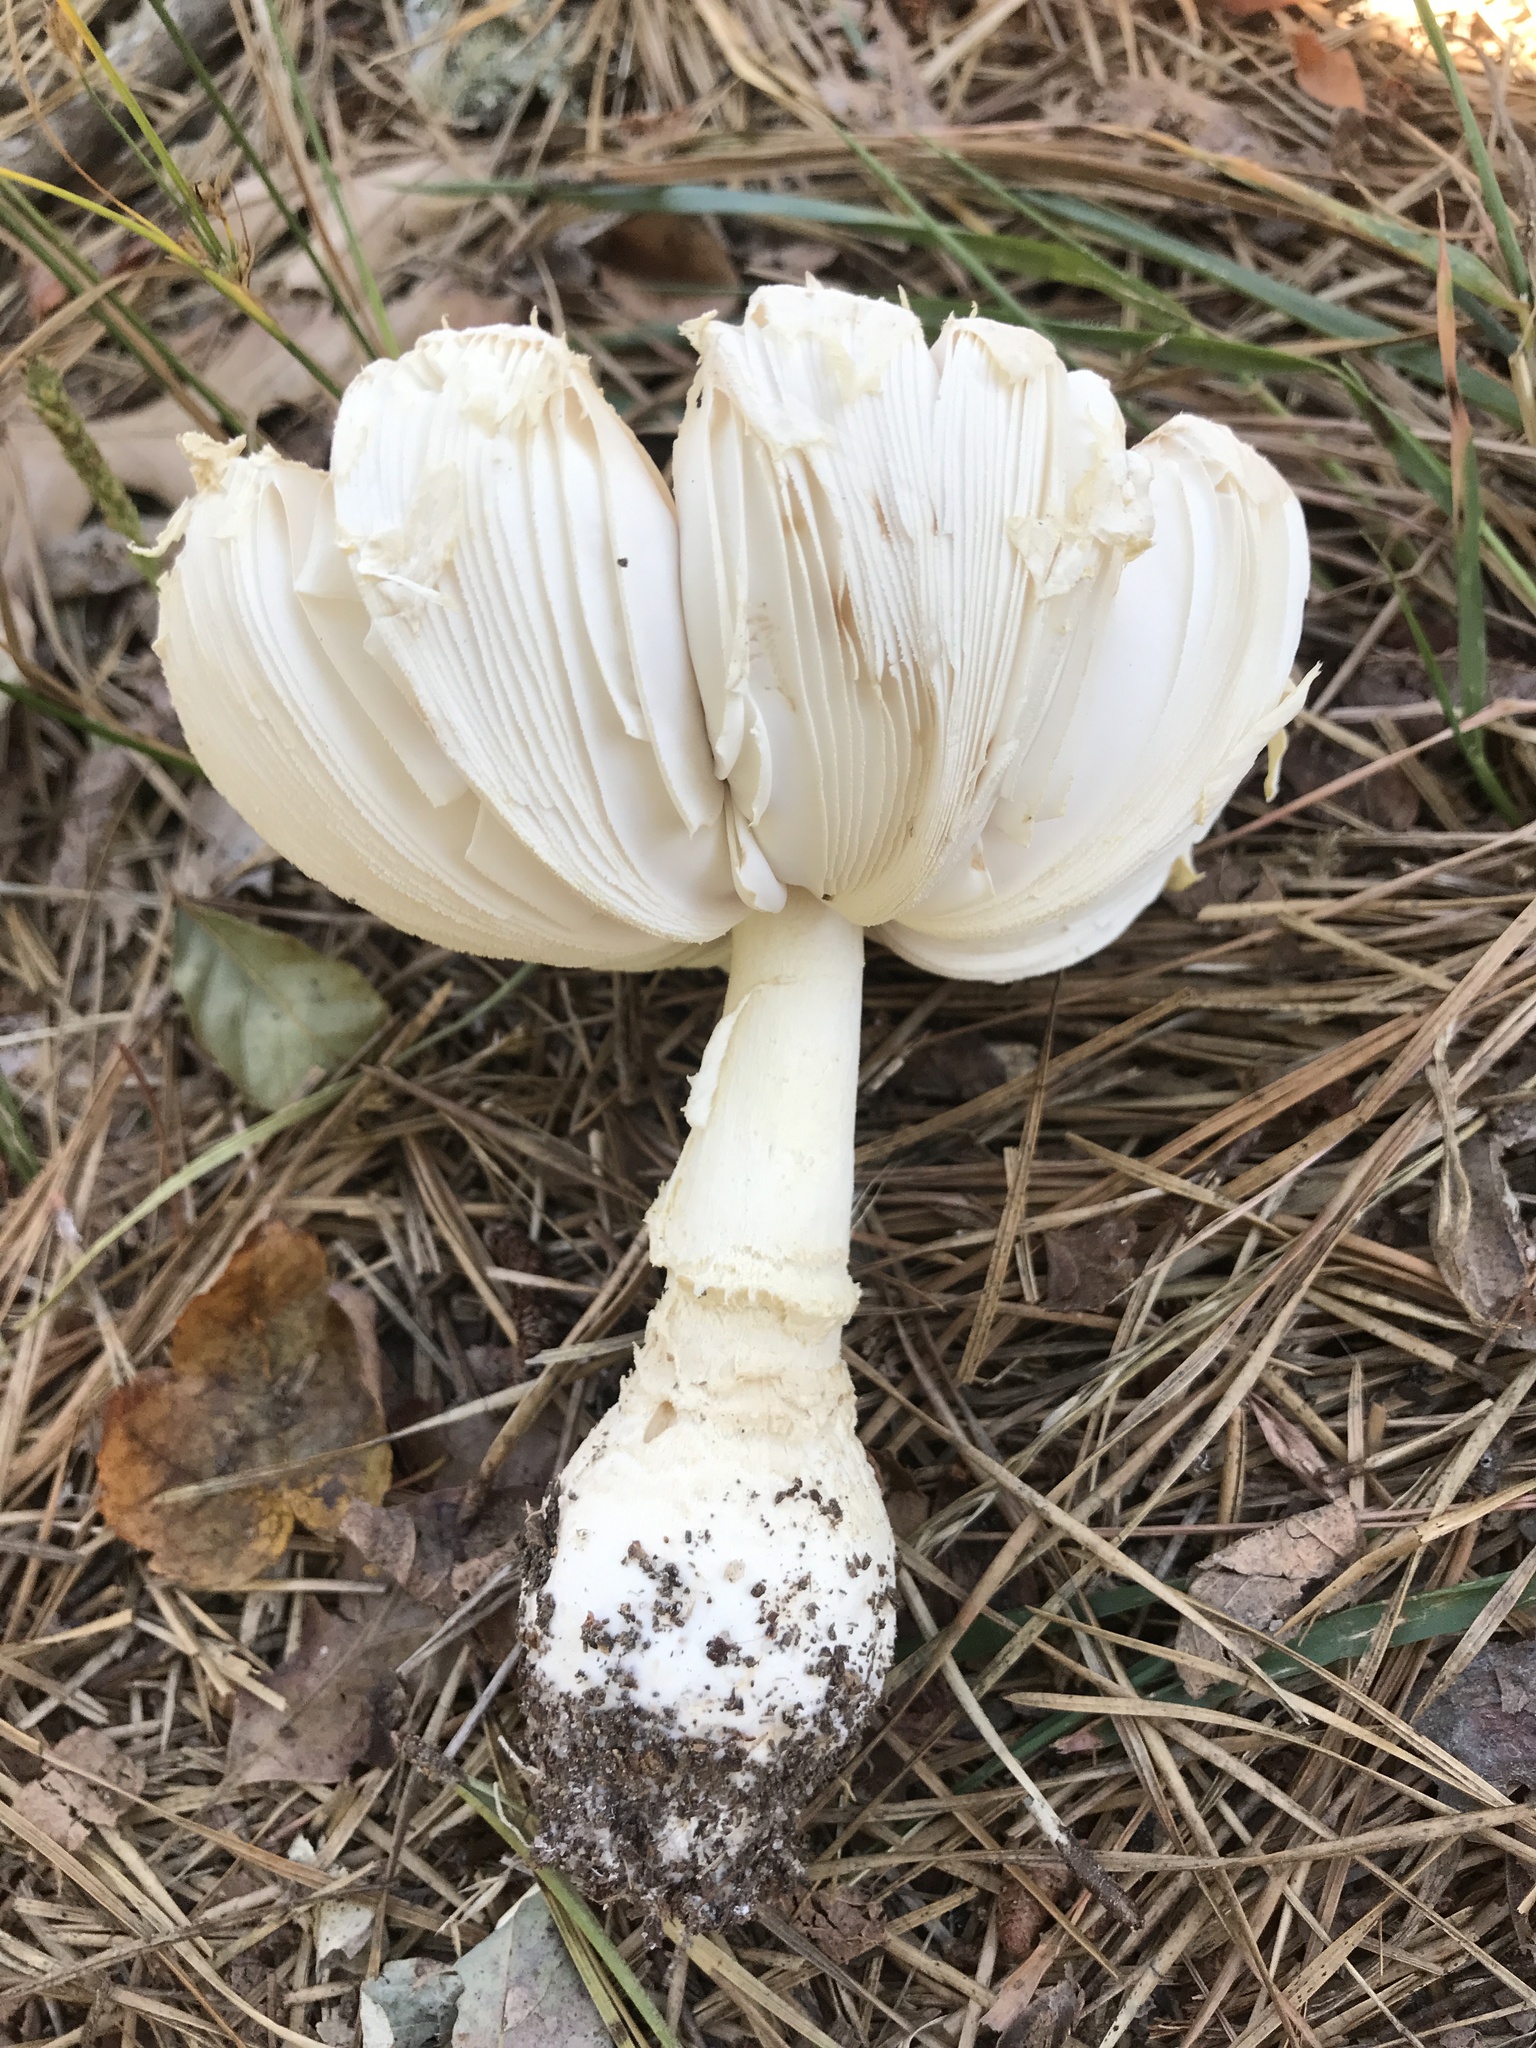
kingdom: Fungi
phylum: Basidiomycota
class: Agaricomycetes
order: Agaricales
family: Amanitaceae
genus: Amanita
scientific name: Amanita muscaria
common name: Fly agaric
